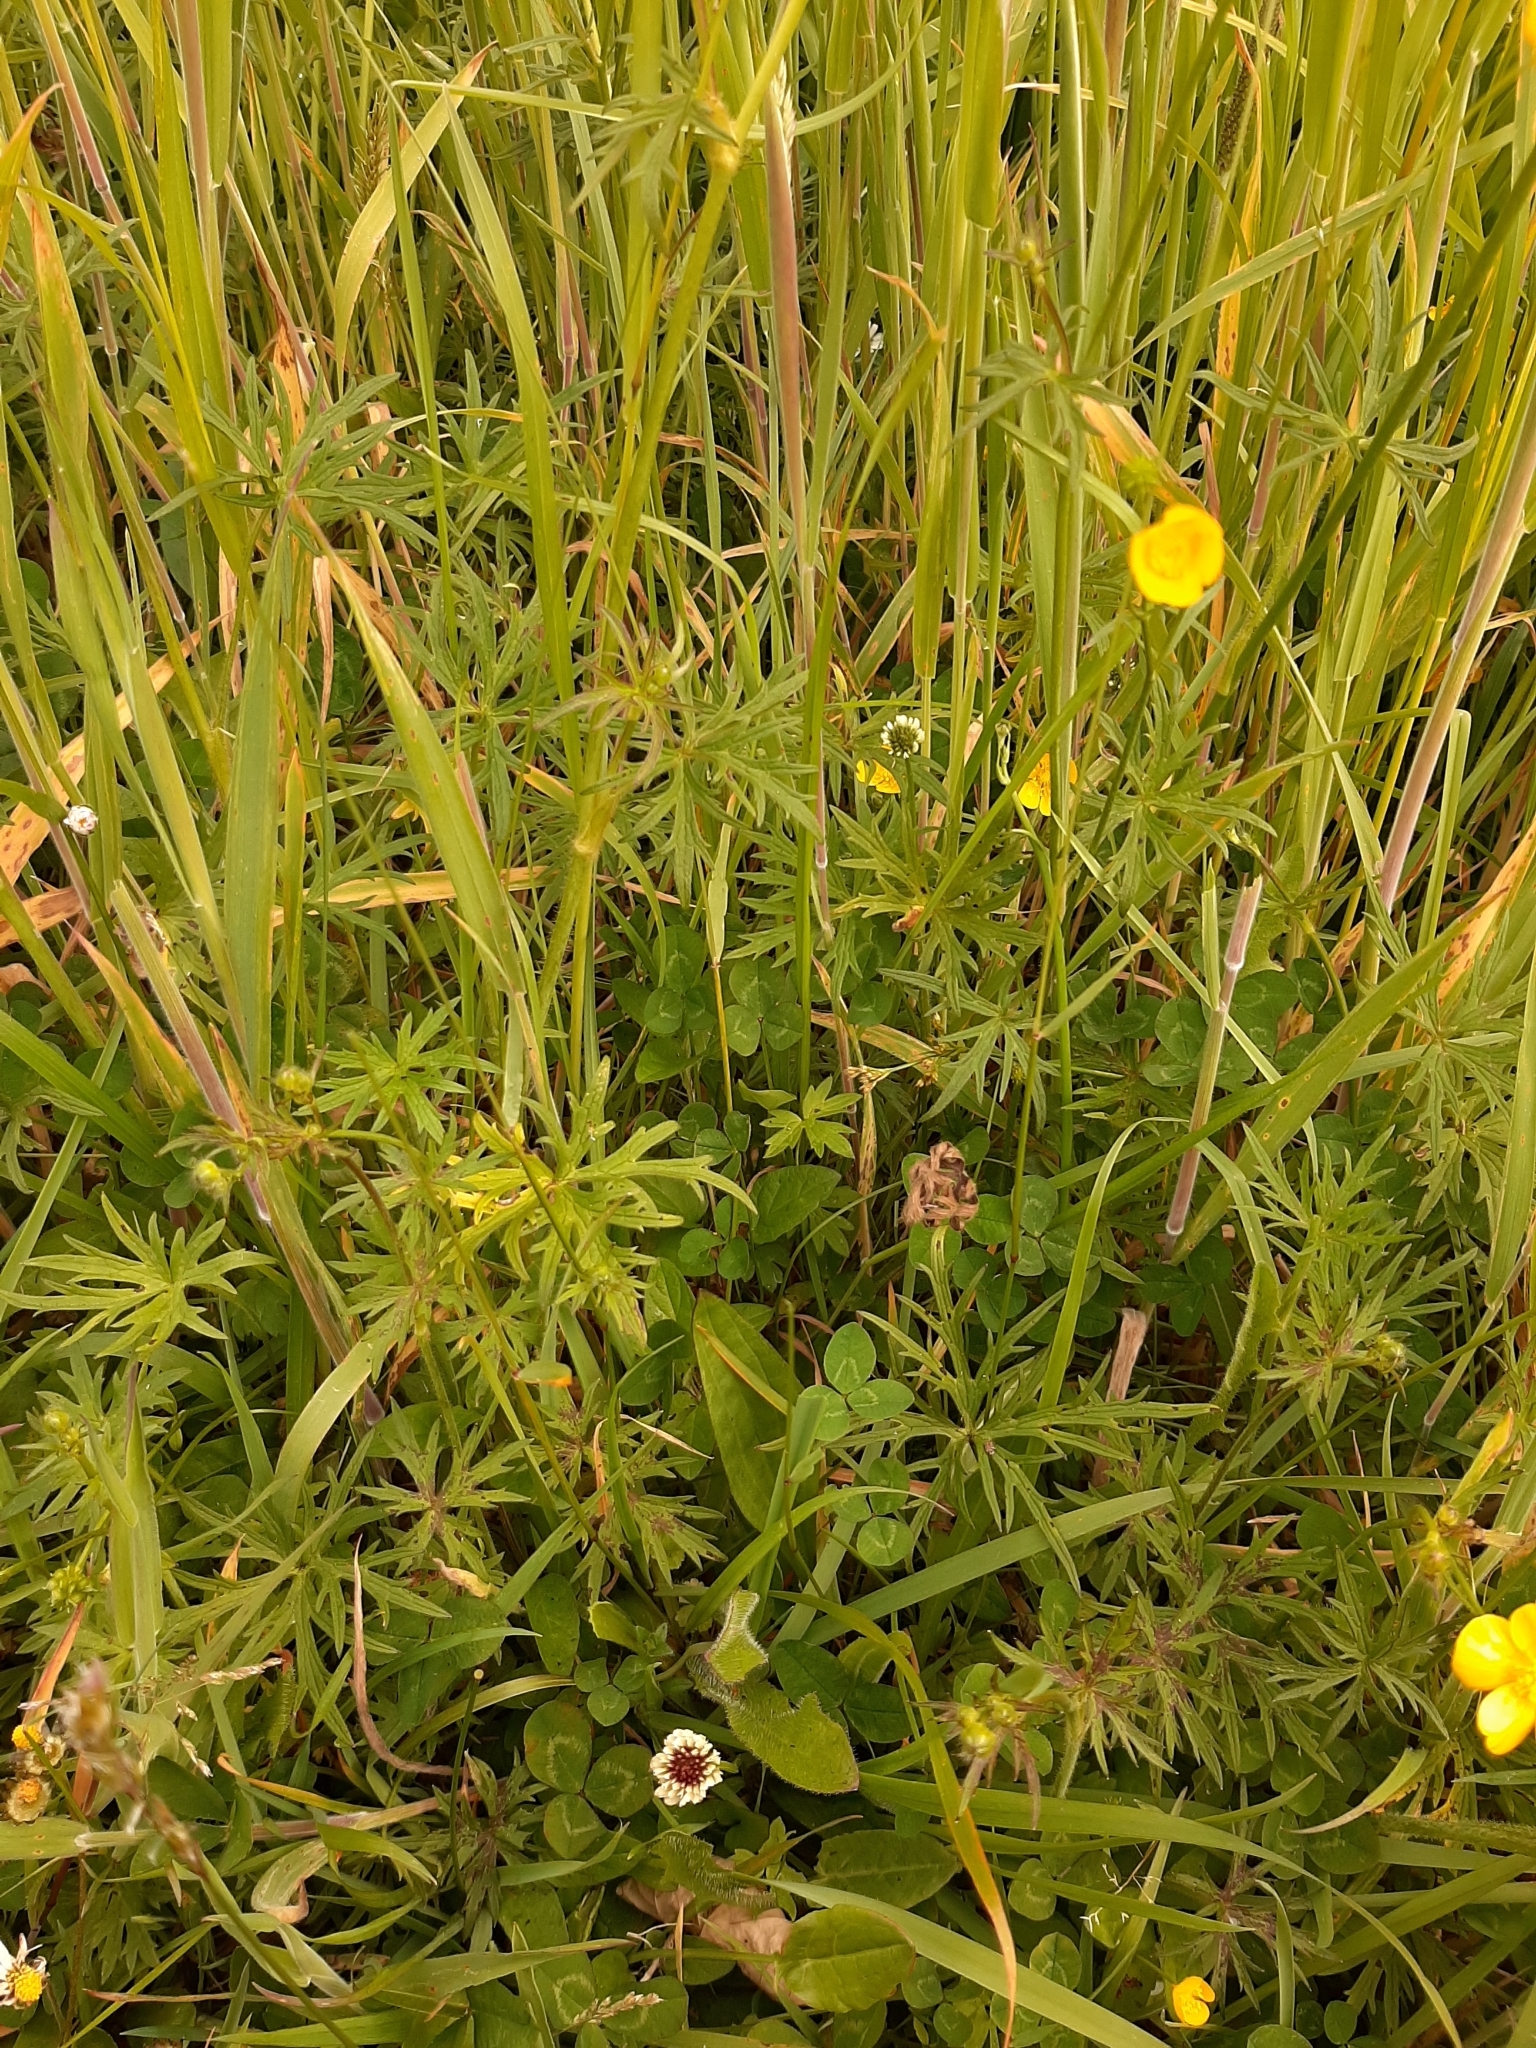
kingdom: Plantae
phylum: Tracheophyta
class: Magnoliopsida
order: Ranunculales
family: Ranunculaceae
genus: Ranunculus
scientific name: Ranunculus acris
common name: Meadow buttercup
